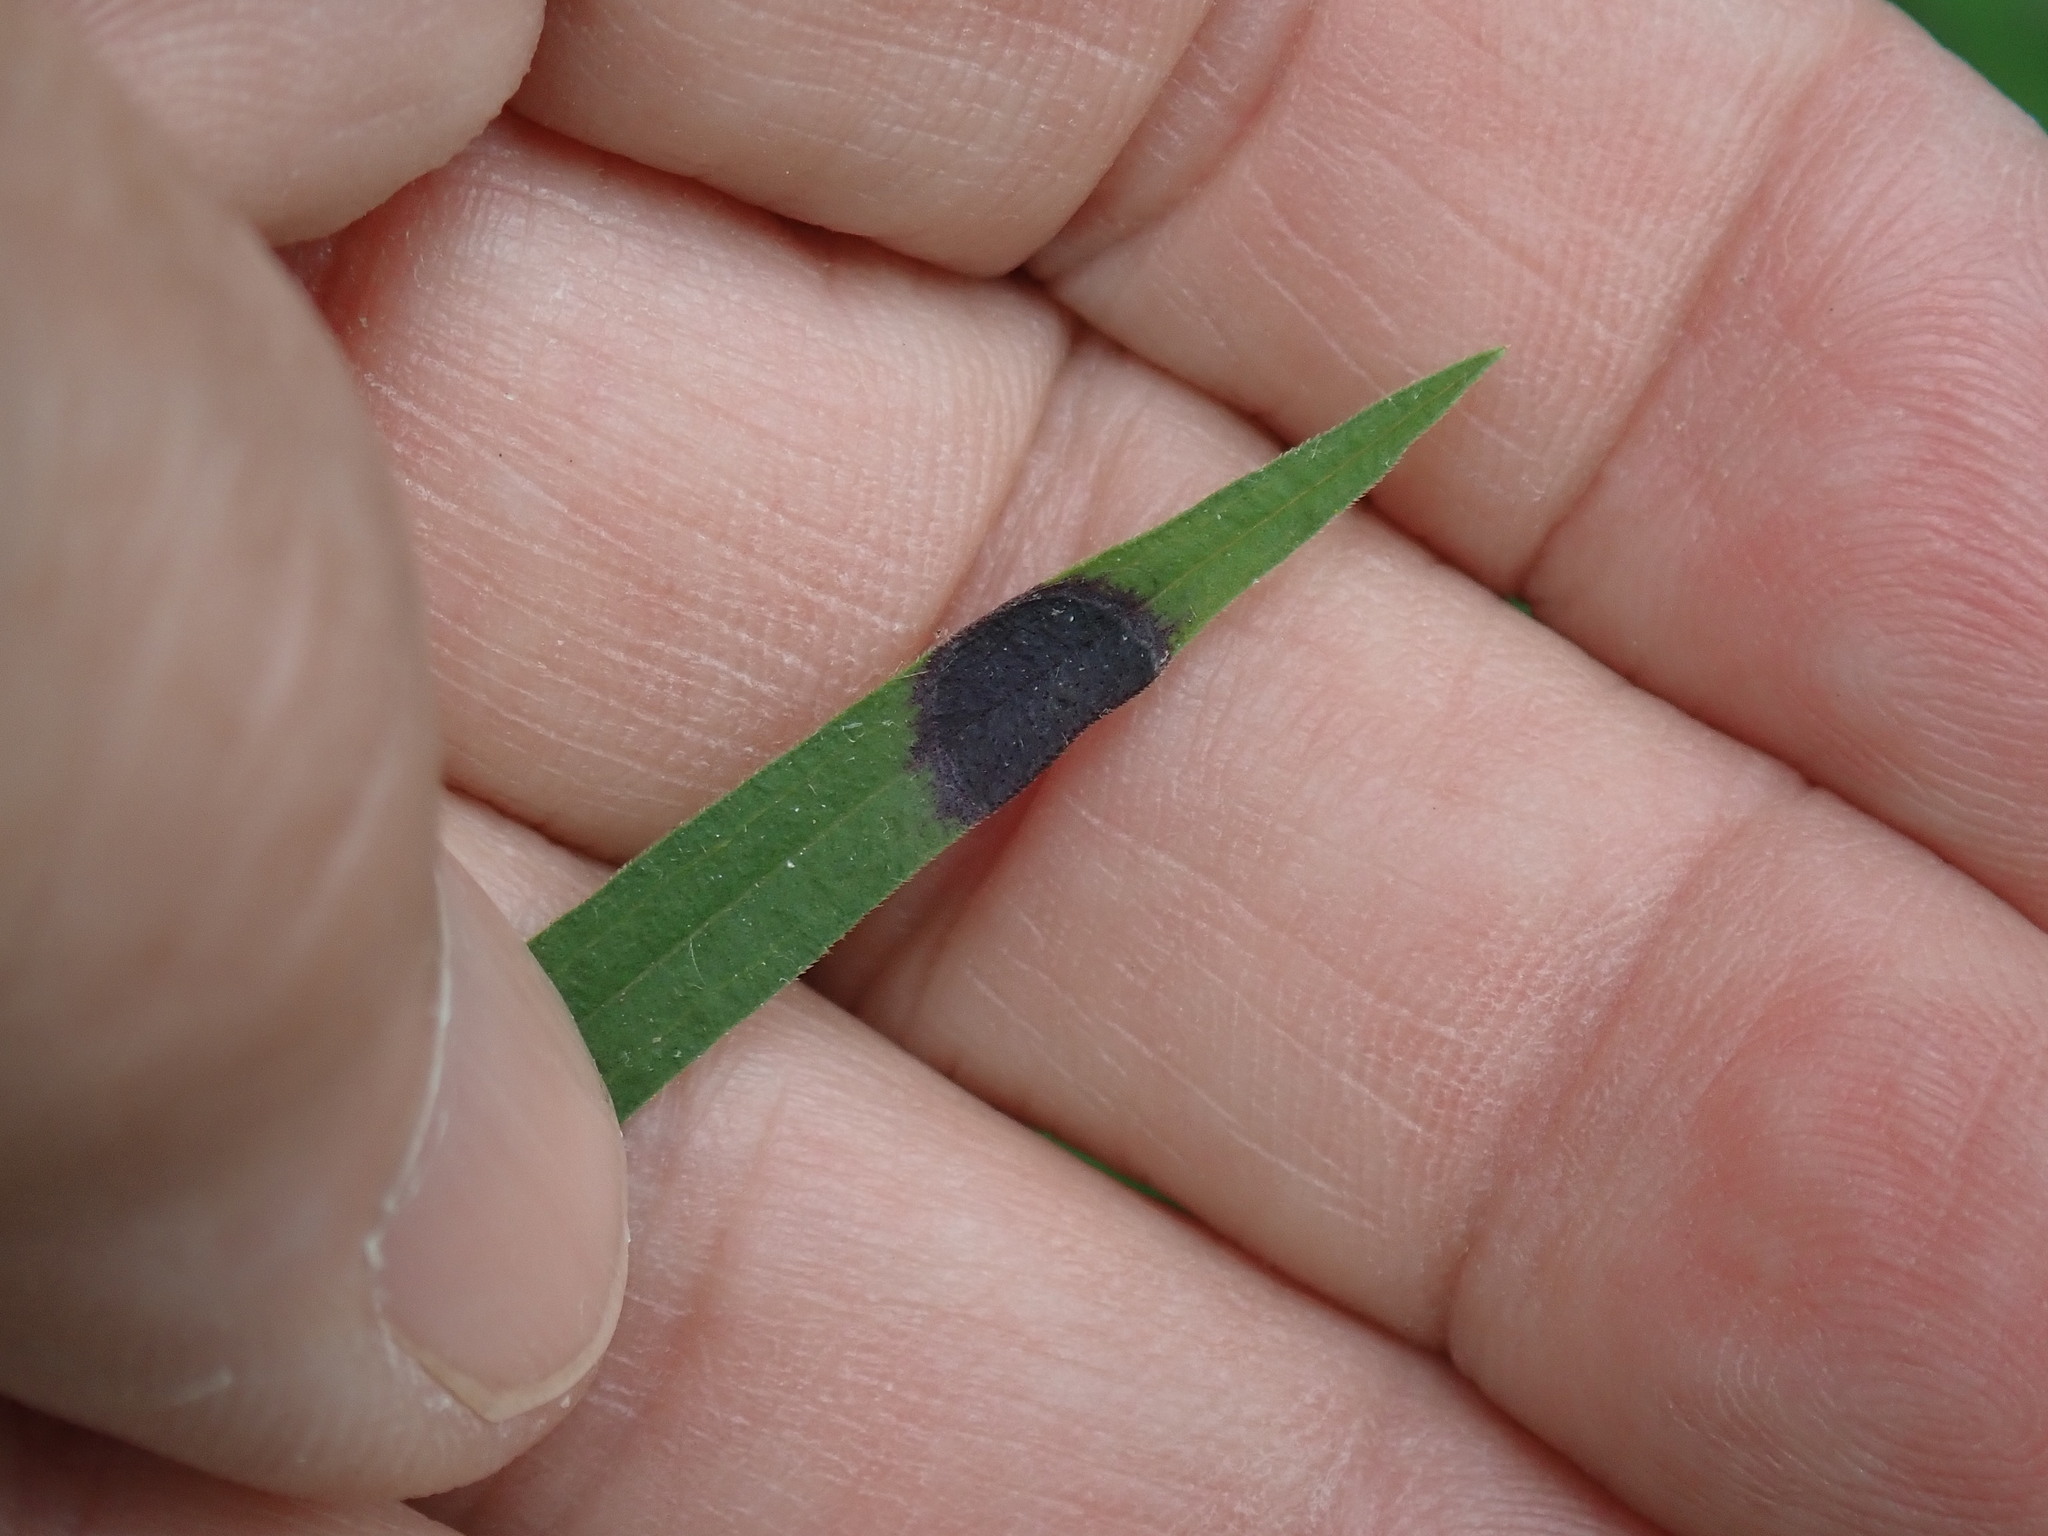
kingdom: Animalia
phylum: Arthropoda
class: Insecta
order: Diptera
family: Cecidomyiidae
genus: Asteromyia
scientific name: Asteromyia euthamiae
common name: Euthamia leaf gall midge
